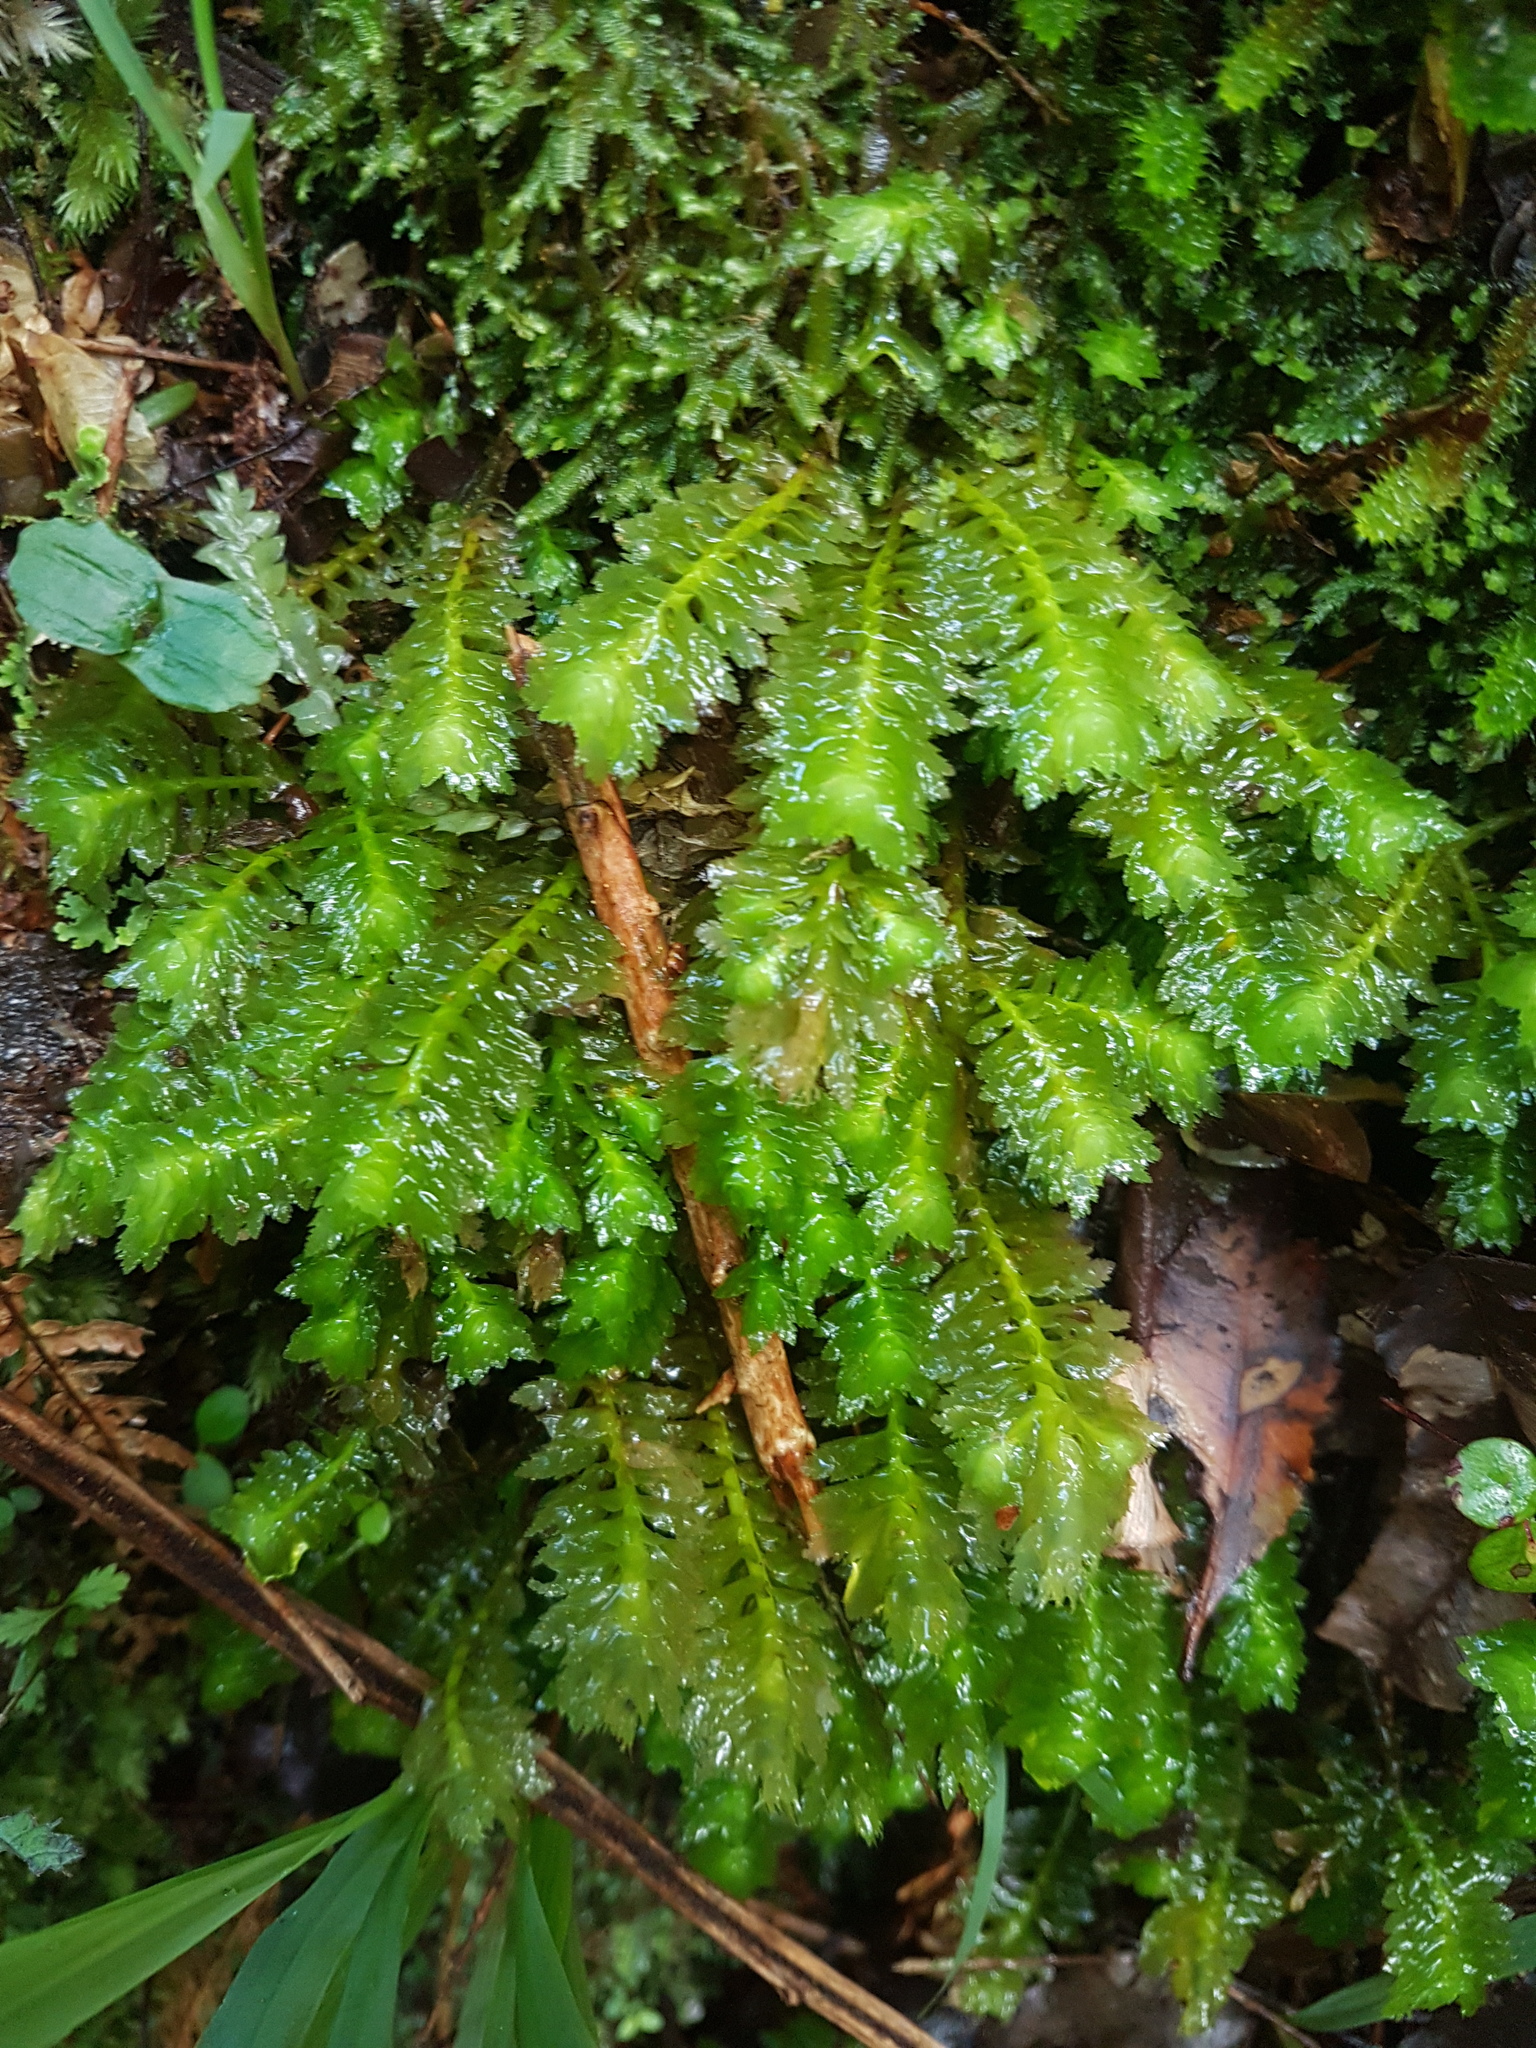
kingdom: Plantae
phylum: Marchantiophyta
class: Jungermanniopsida
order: Jungermanniales
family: Schistochilaceae
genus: Schistochila
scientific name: Schistochila appendiculata
